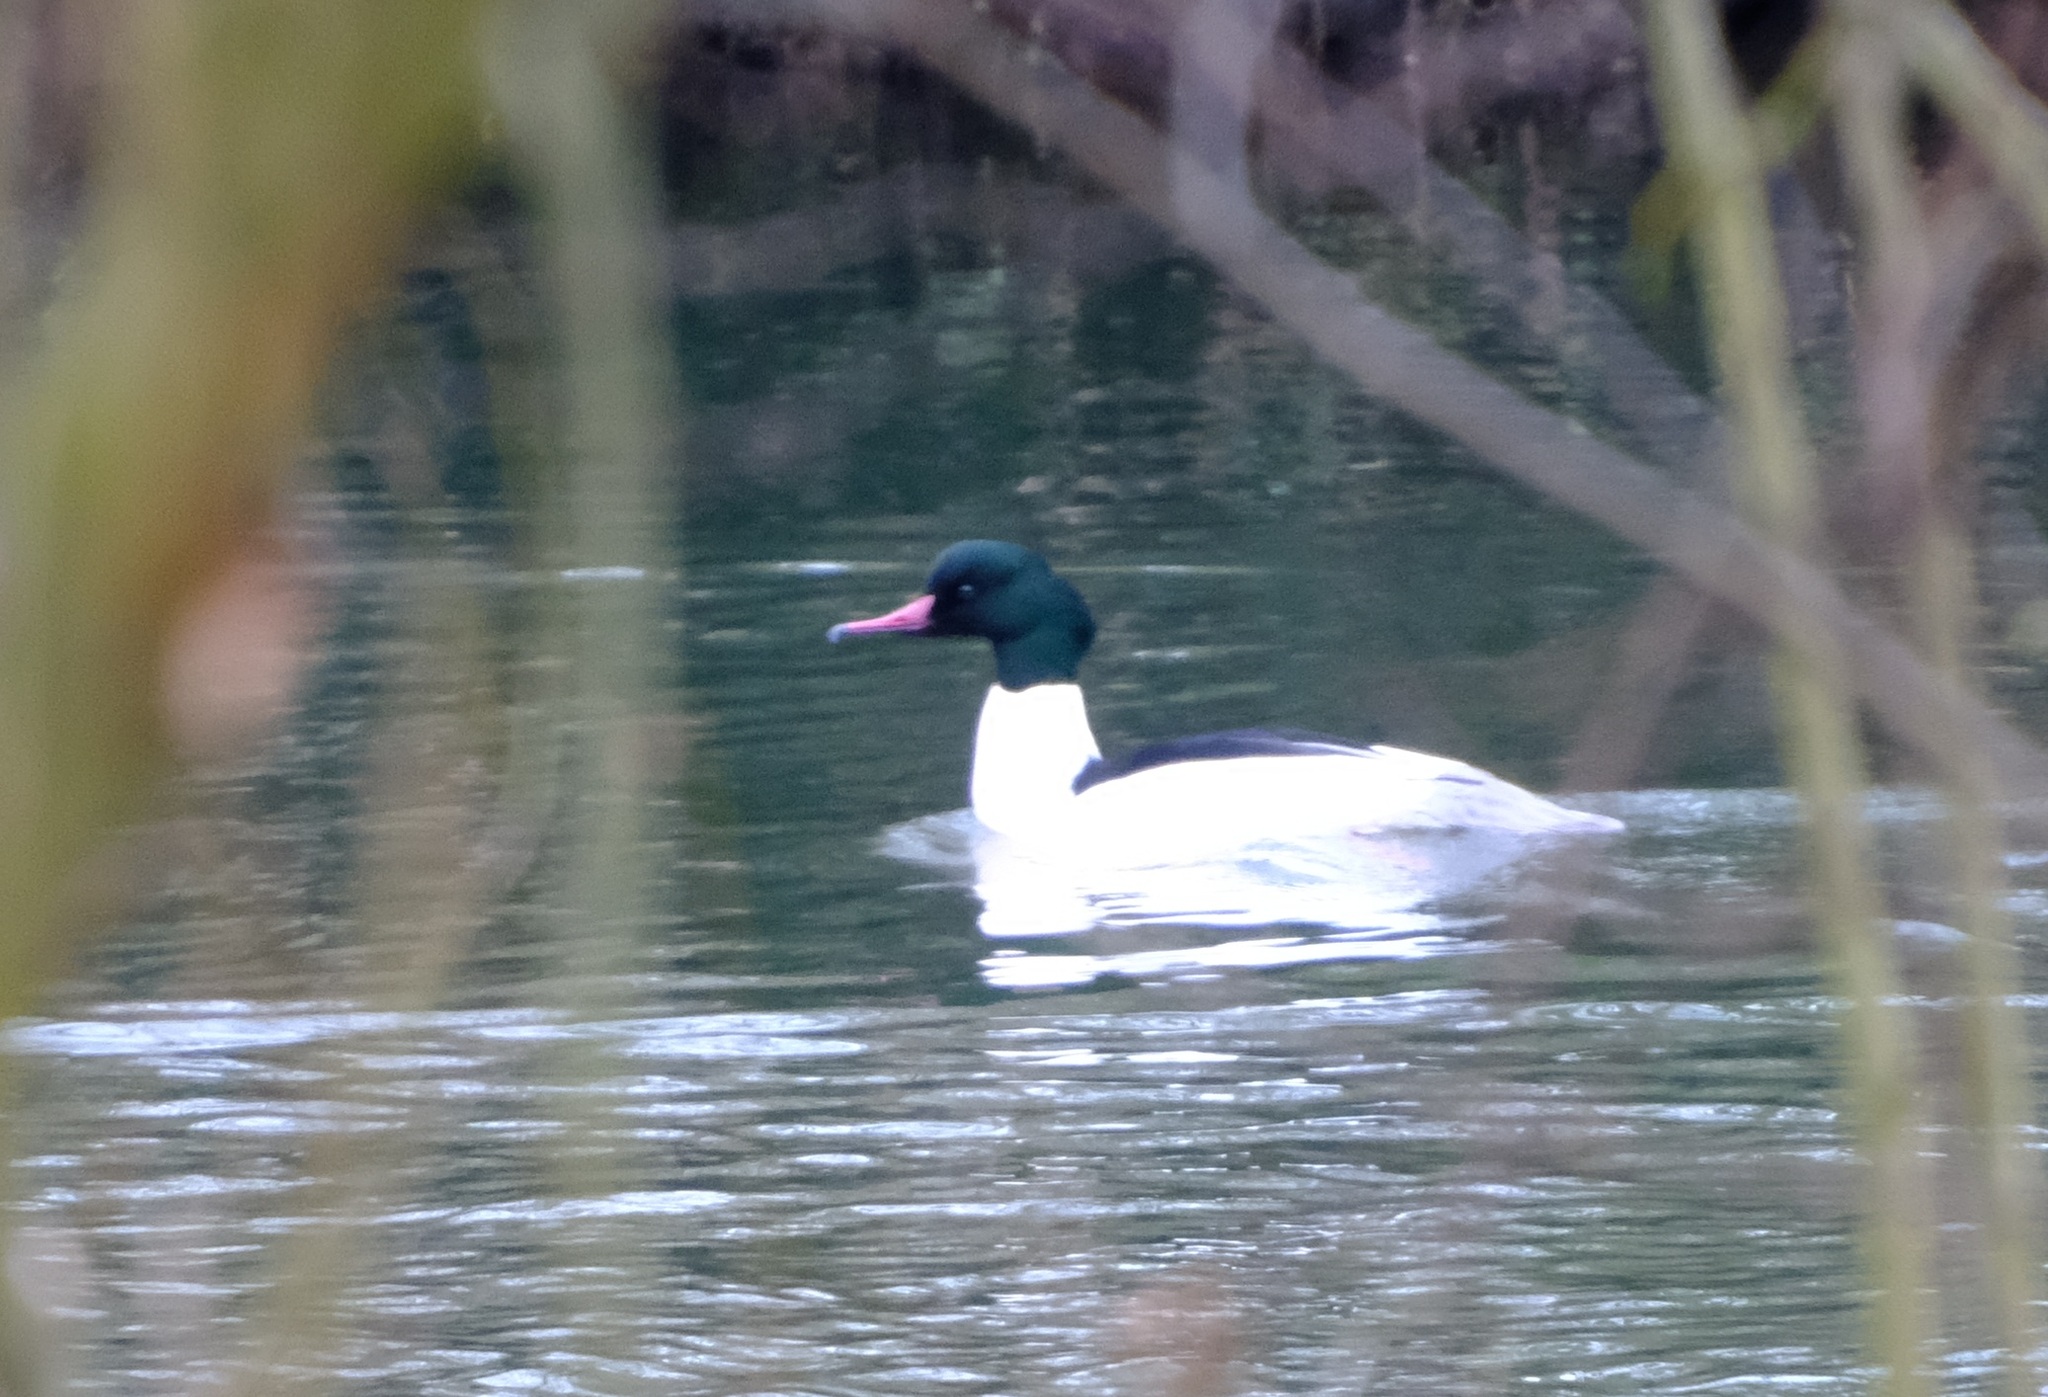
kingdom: Animalia
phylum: Chordata
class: Aves
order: Anseriformes
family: Anatidae
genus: Mergus
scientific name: Mergus merganser
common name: Common merganser
